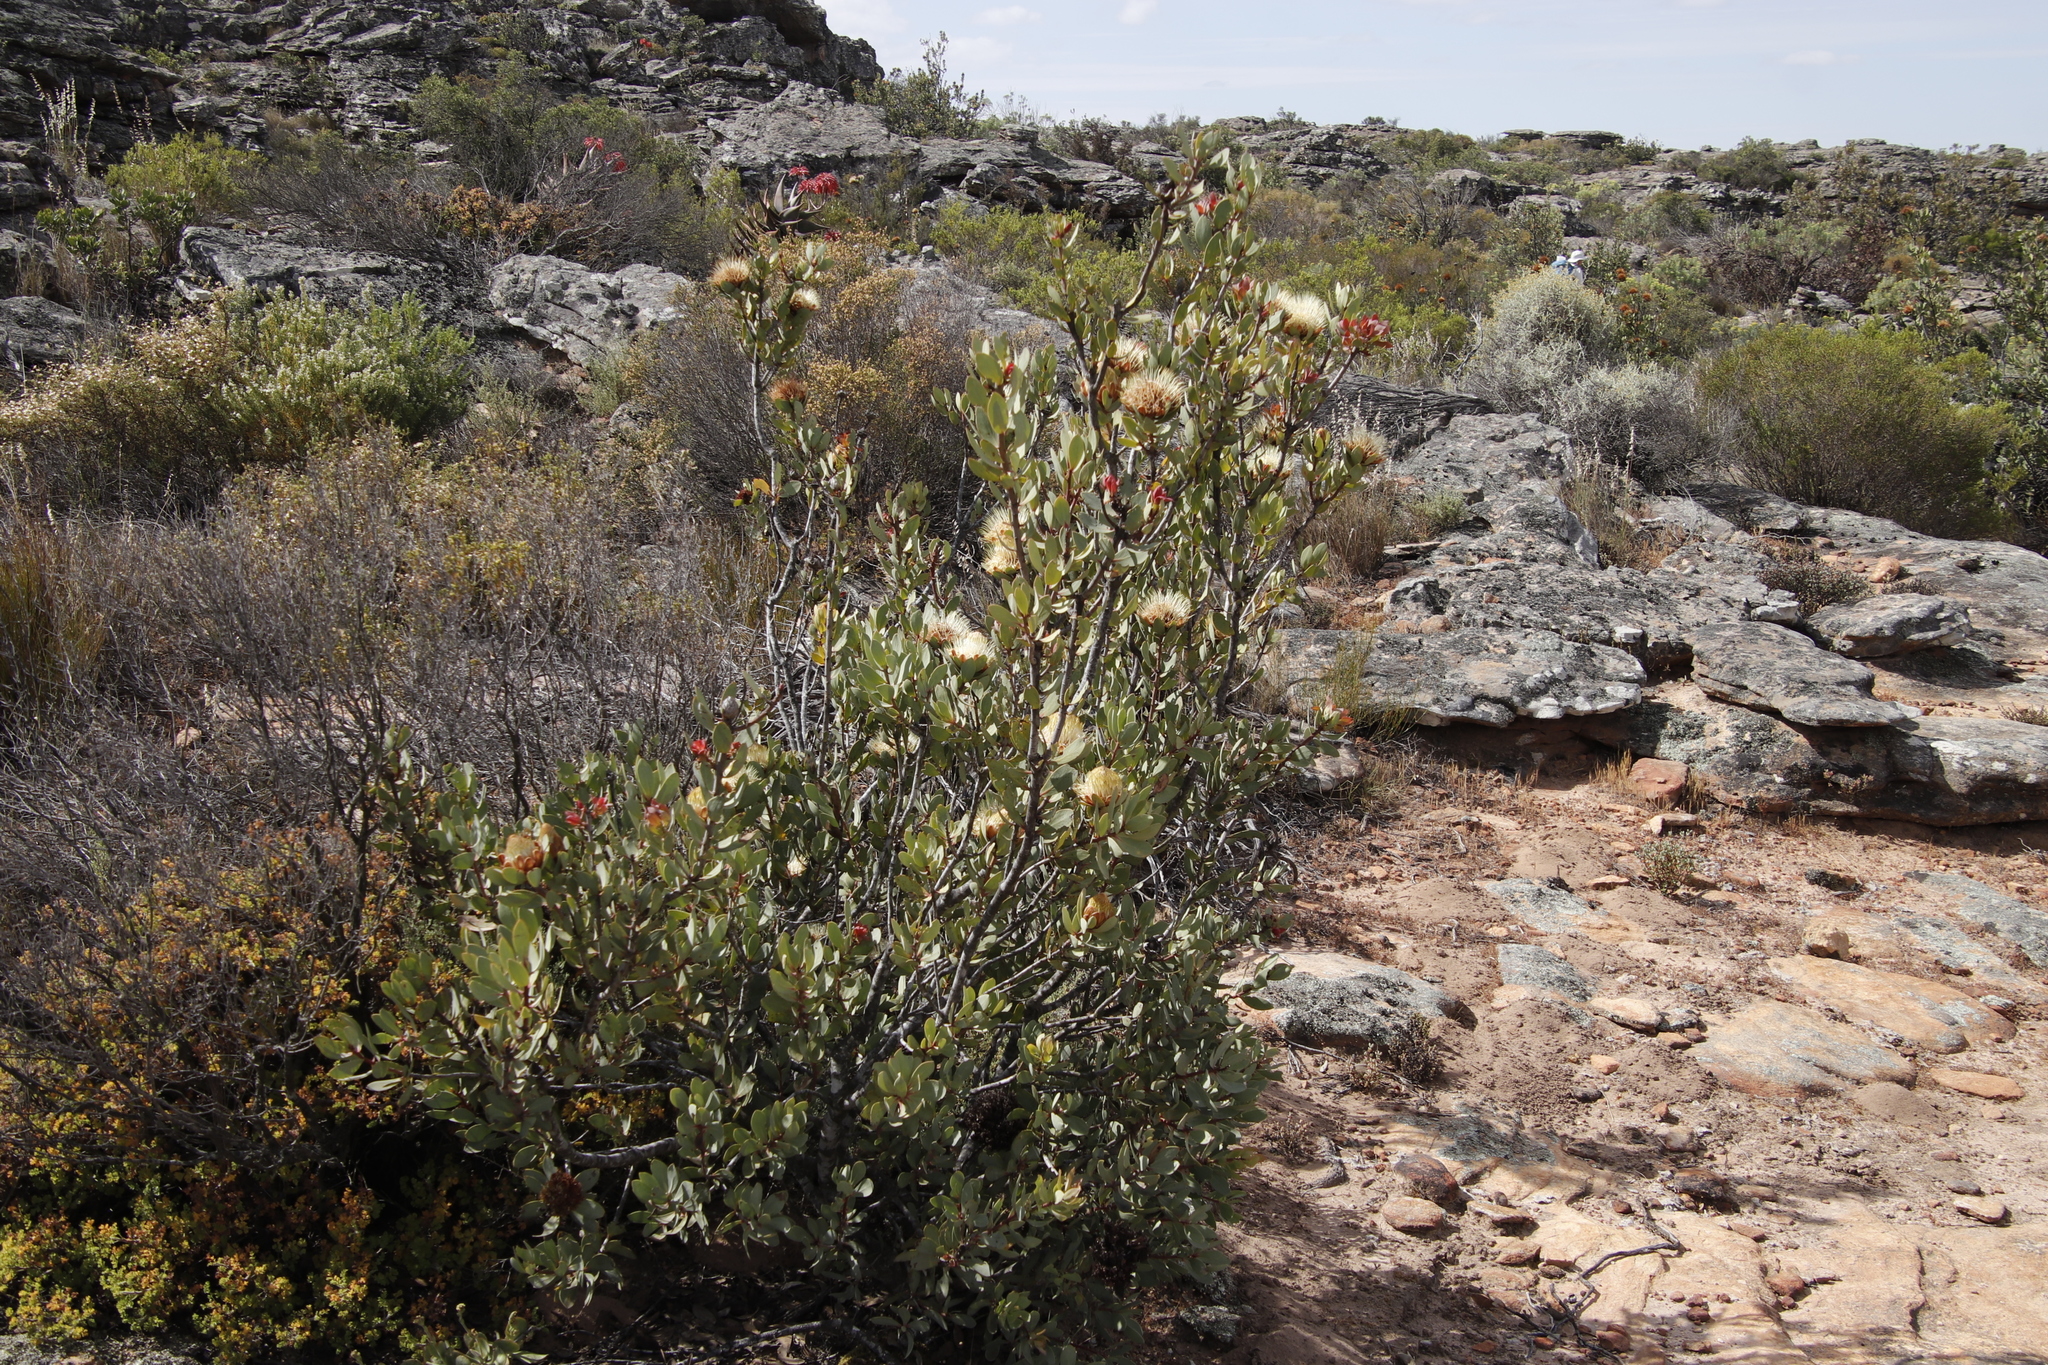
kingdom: Plantae
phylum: Tracheophyta
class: Magnoliopsida
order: Proteales
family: Proteaceae
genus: Protea
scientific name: Protea glabra
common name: Chestnut sugarbush
